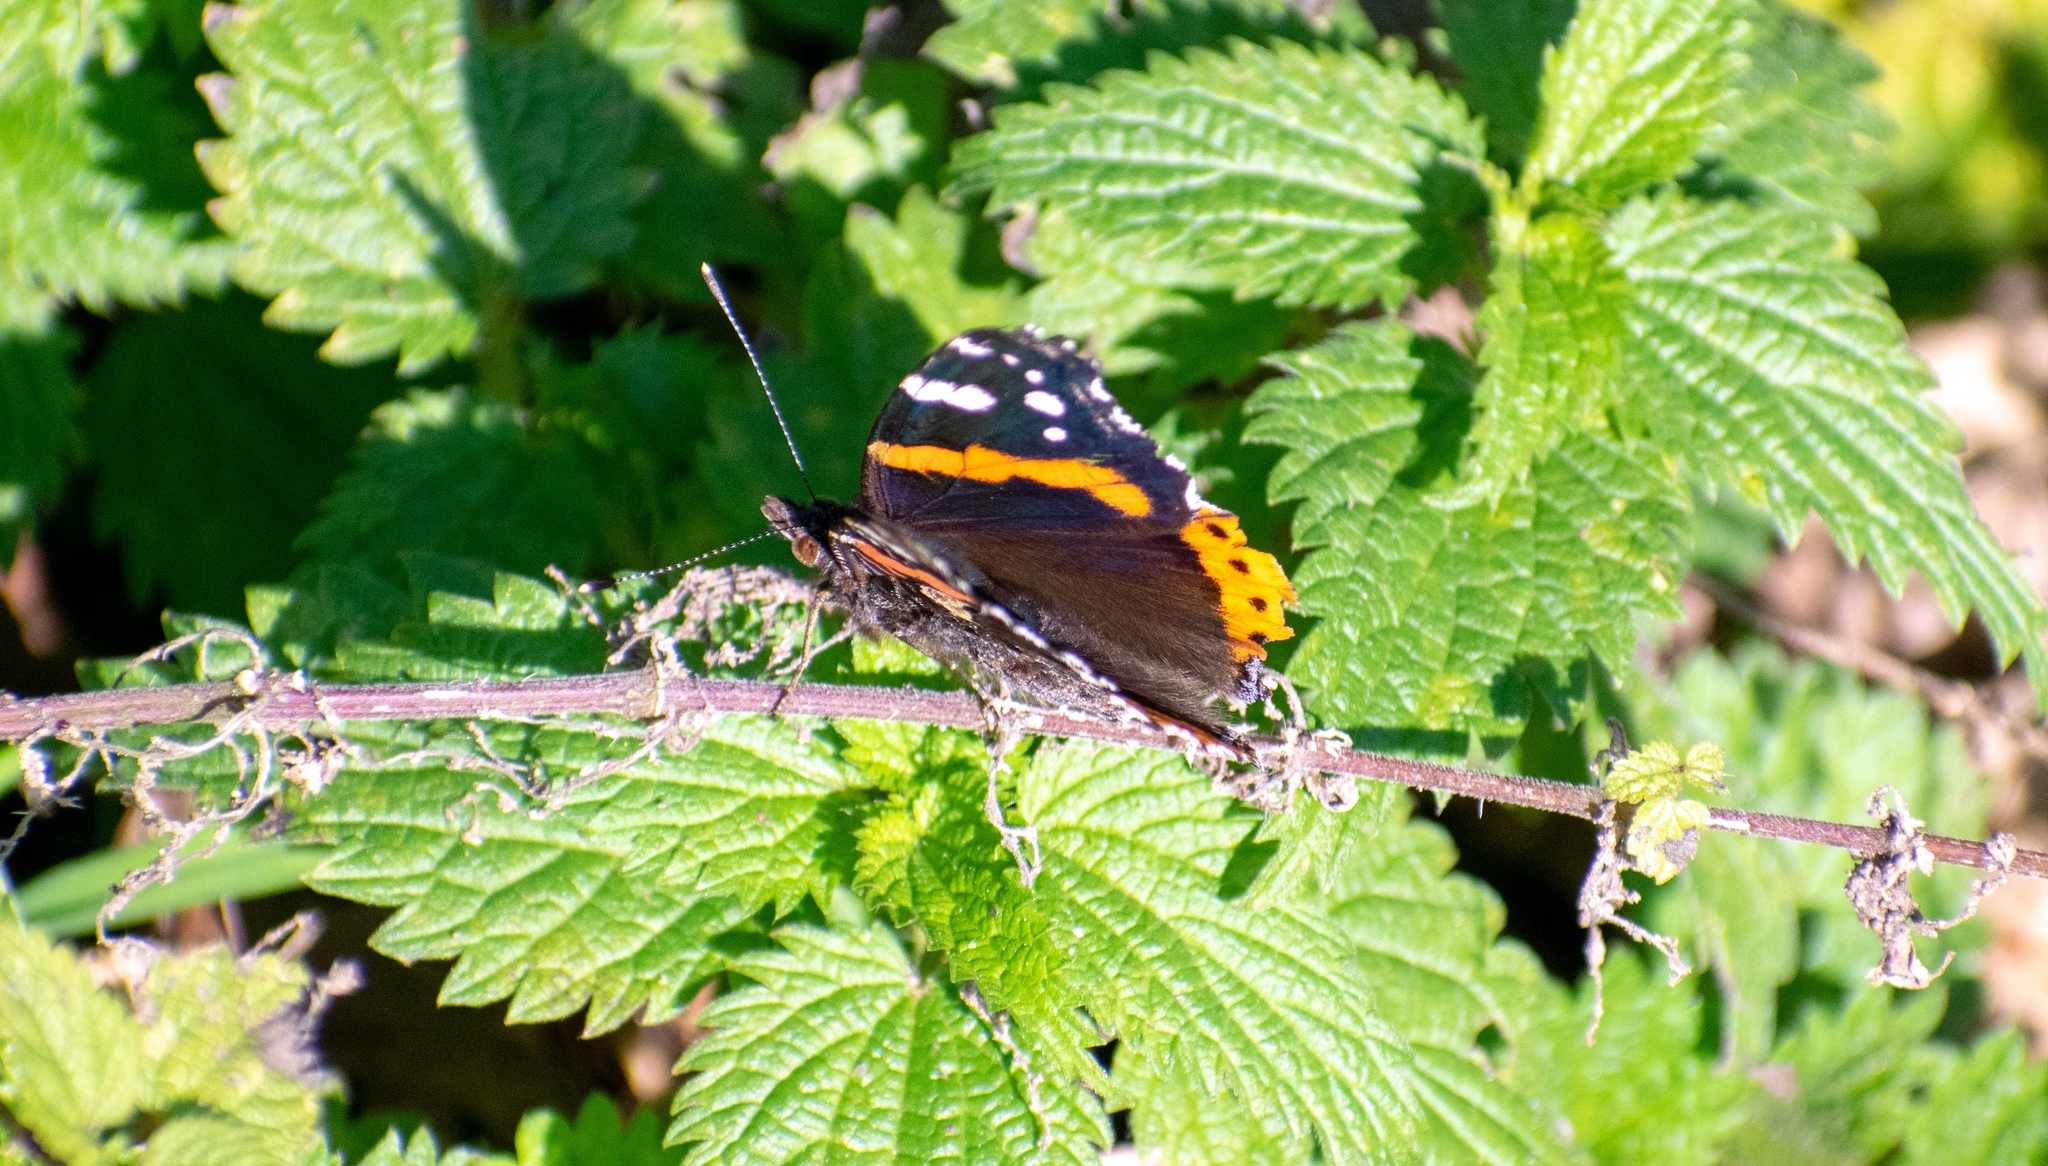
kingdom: Animalia
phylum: Arthropoda
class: Insecta
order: Lepidoptera
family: Nymphalidae
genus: Vanessa
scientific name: Vanessa atalanta
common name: Red admiral
